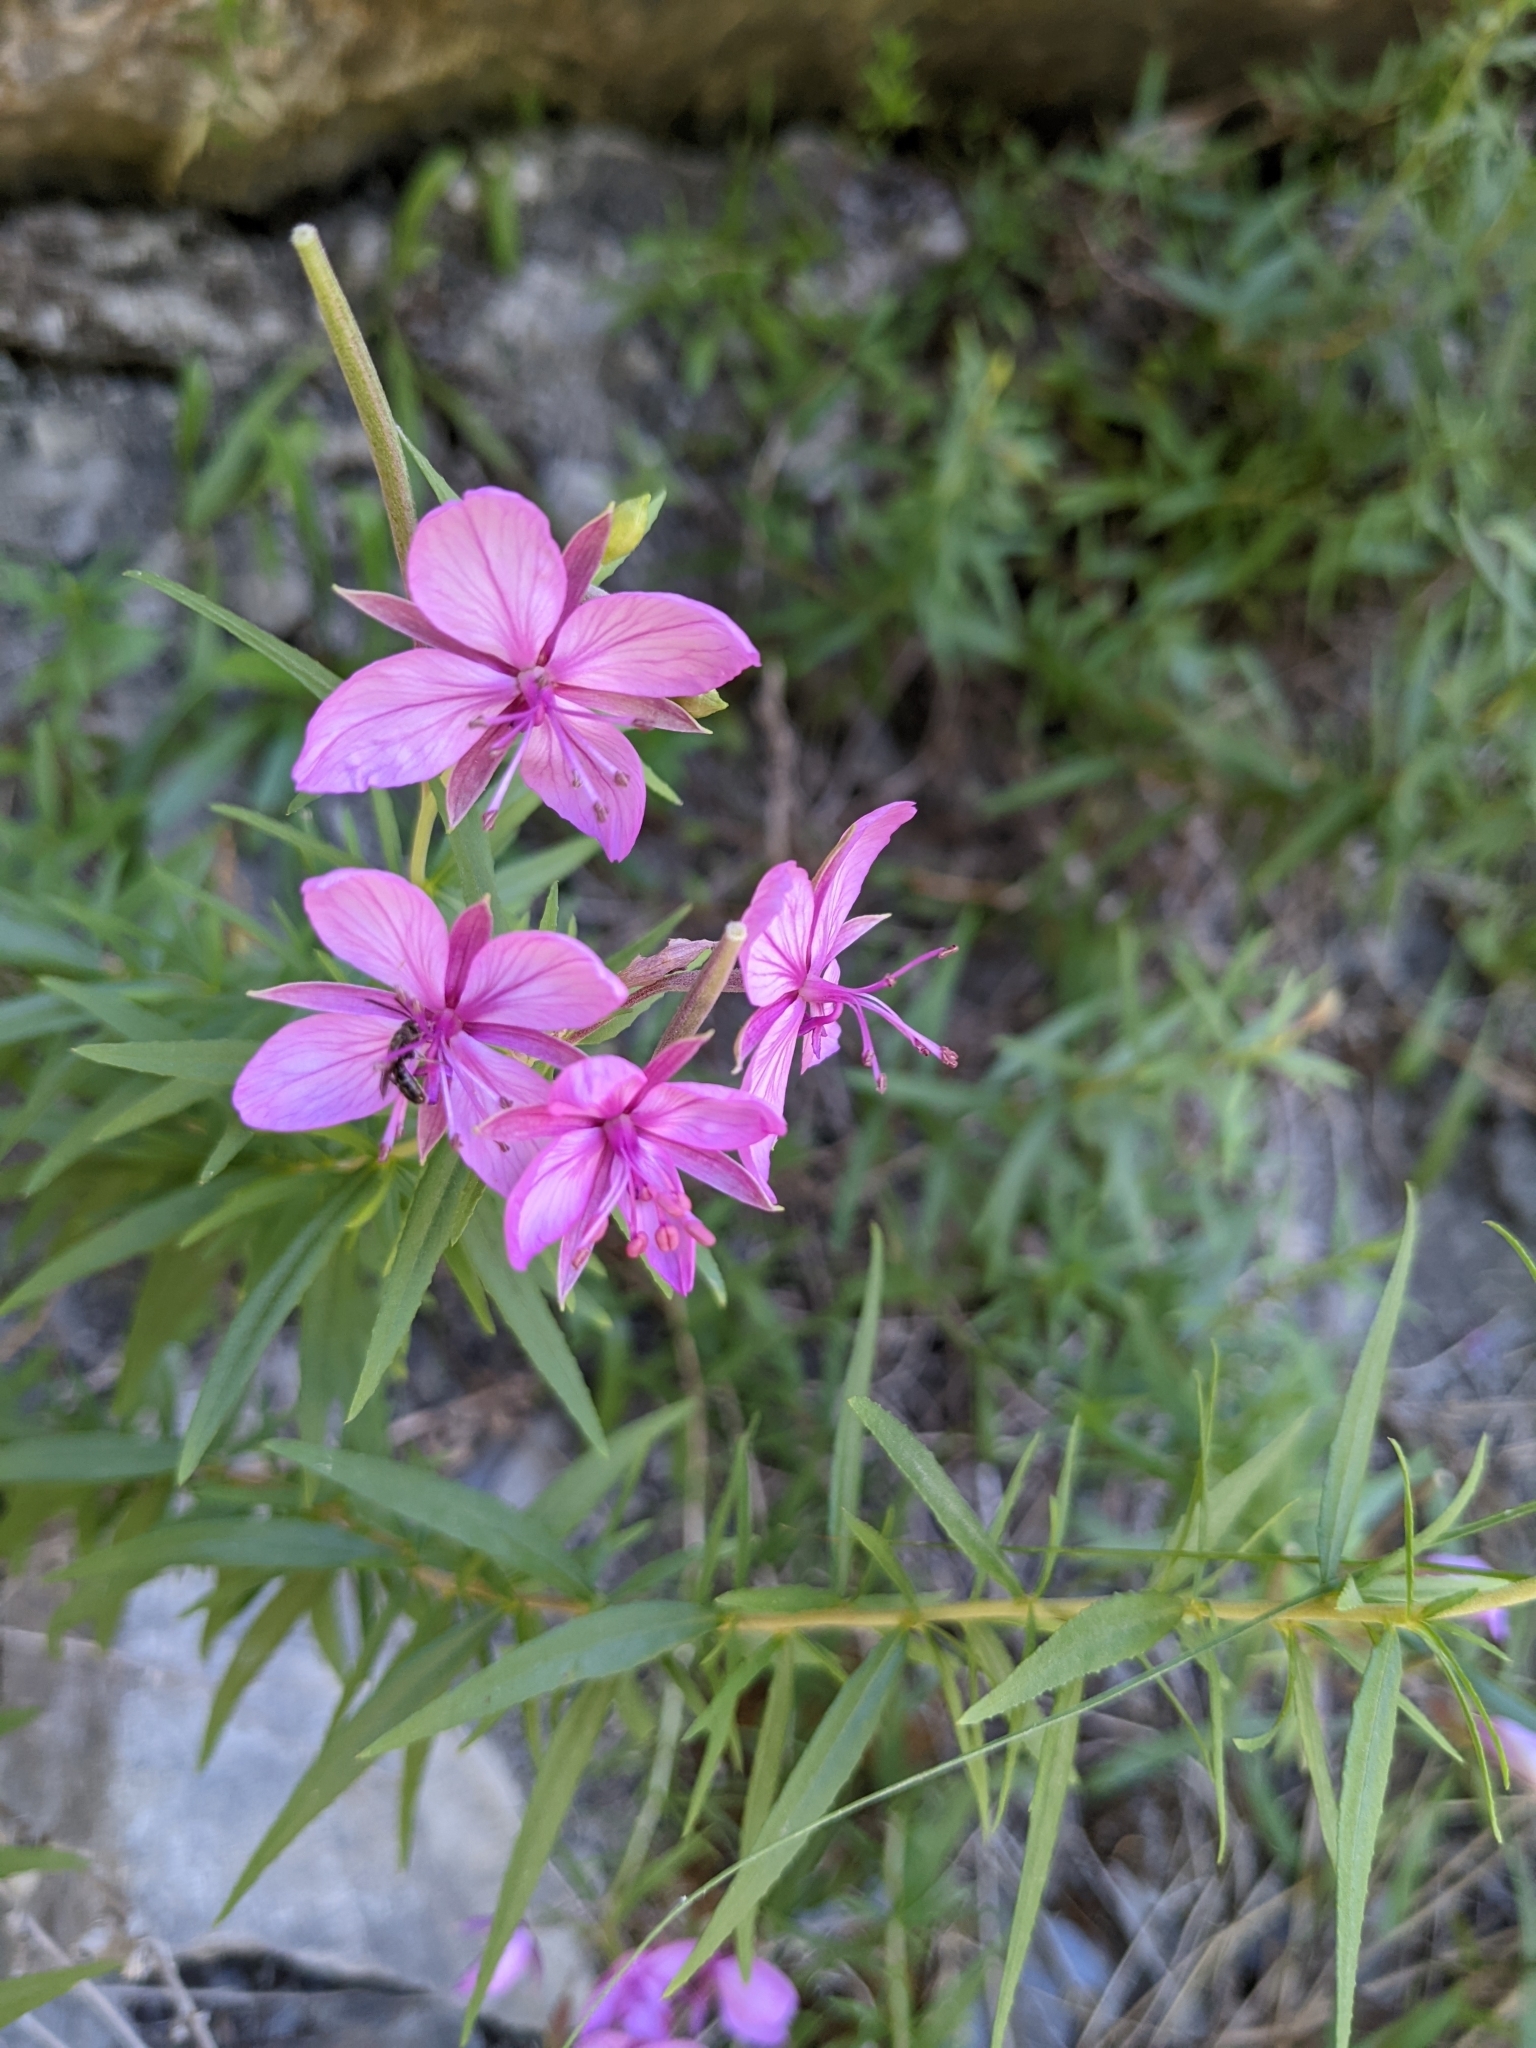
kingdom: Plantae
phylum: Tracheophyta
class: Magnoliopsida
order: Myrtales
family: Onagraceae
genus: Chamaenerion
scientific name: Chamaenerion fleischeri
